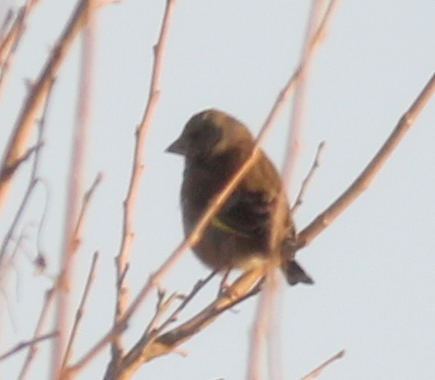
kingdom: Plantae
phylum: Tracheophyta
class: Liliopsida
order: Poales
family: Poaceae
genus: Chloris
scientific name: Chloris chloris
